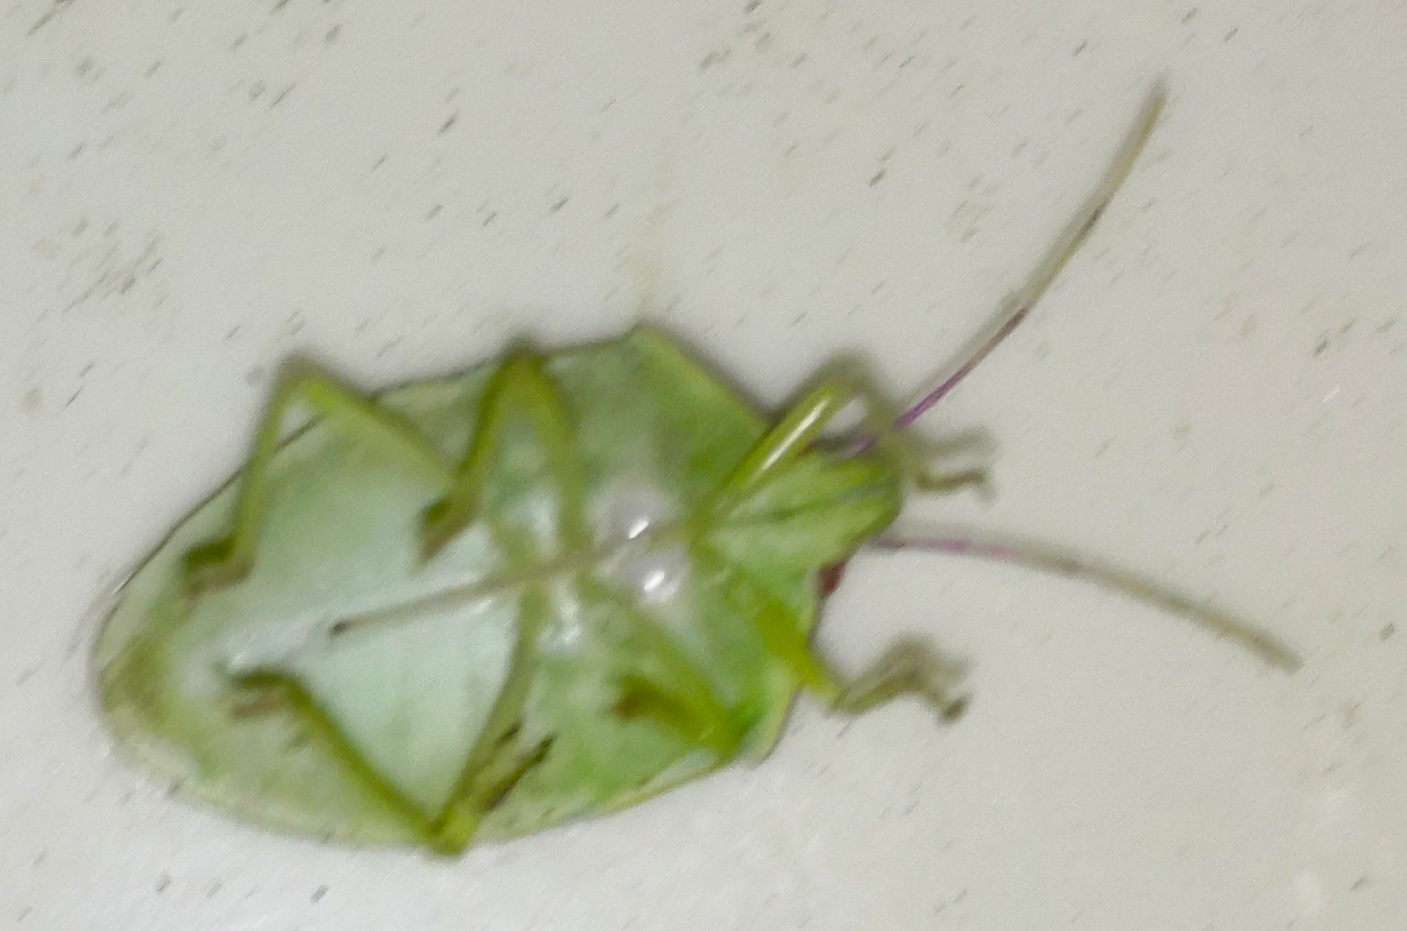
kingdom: Animalia
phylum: Arthropoda
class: Insecta
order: Hemiptera
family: Pentatomidae
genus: Bathycoelia
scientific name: Bathycoelia indica
